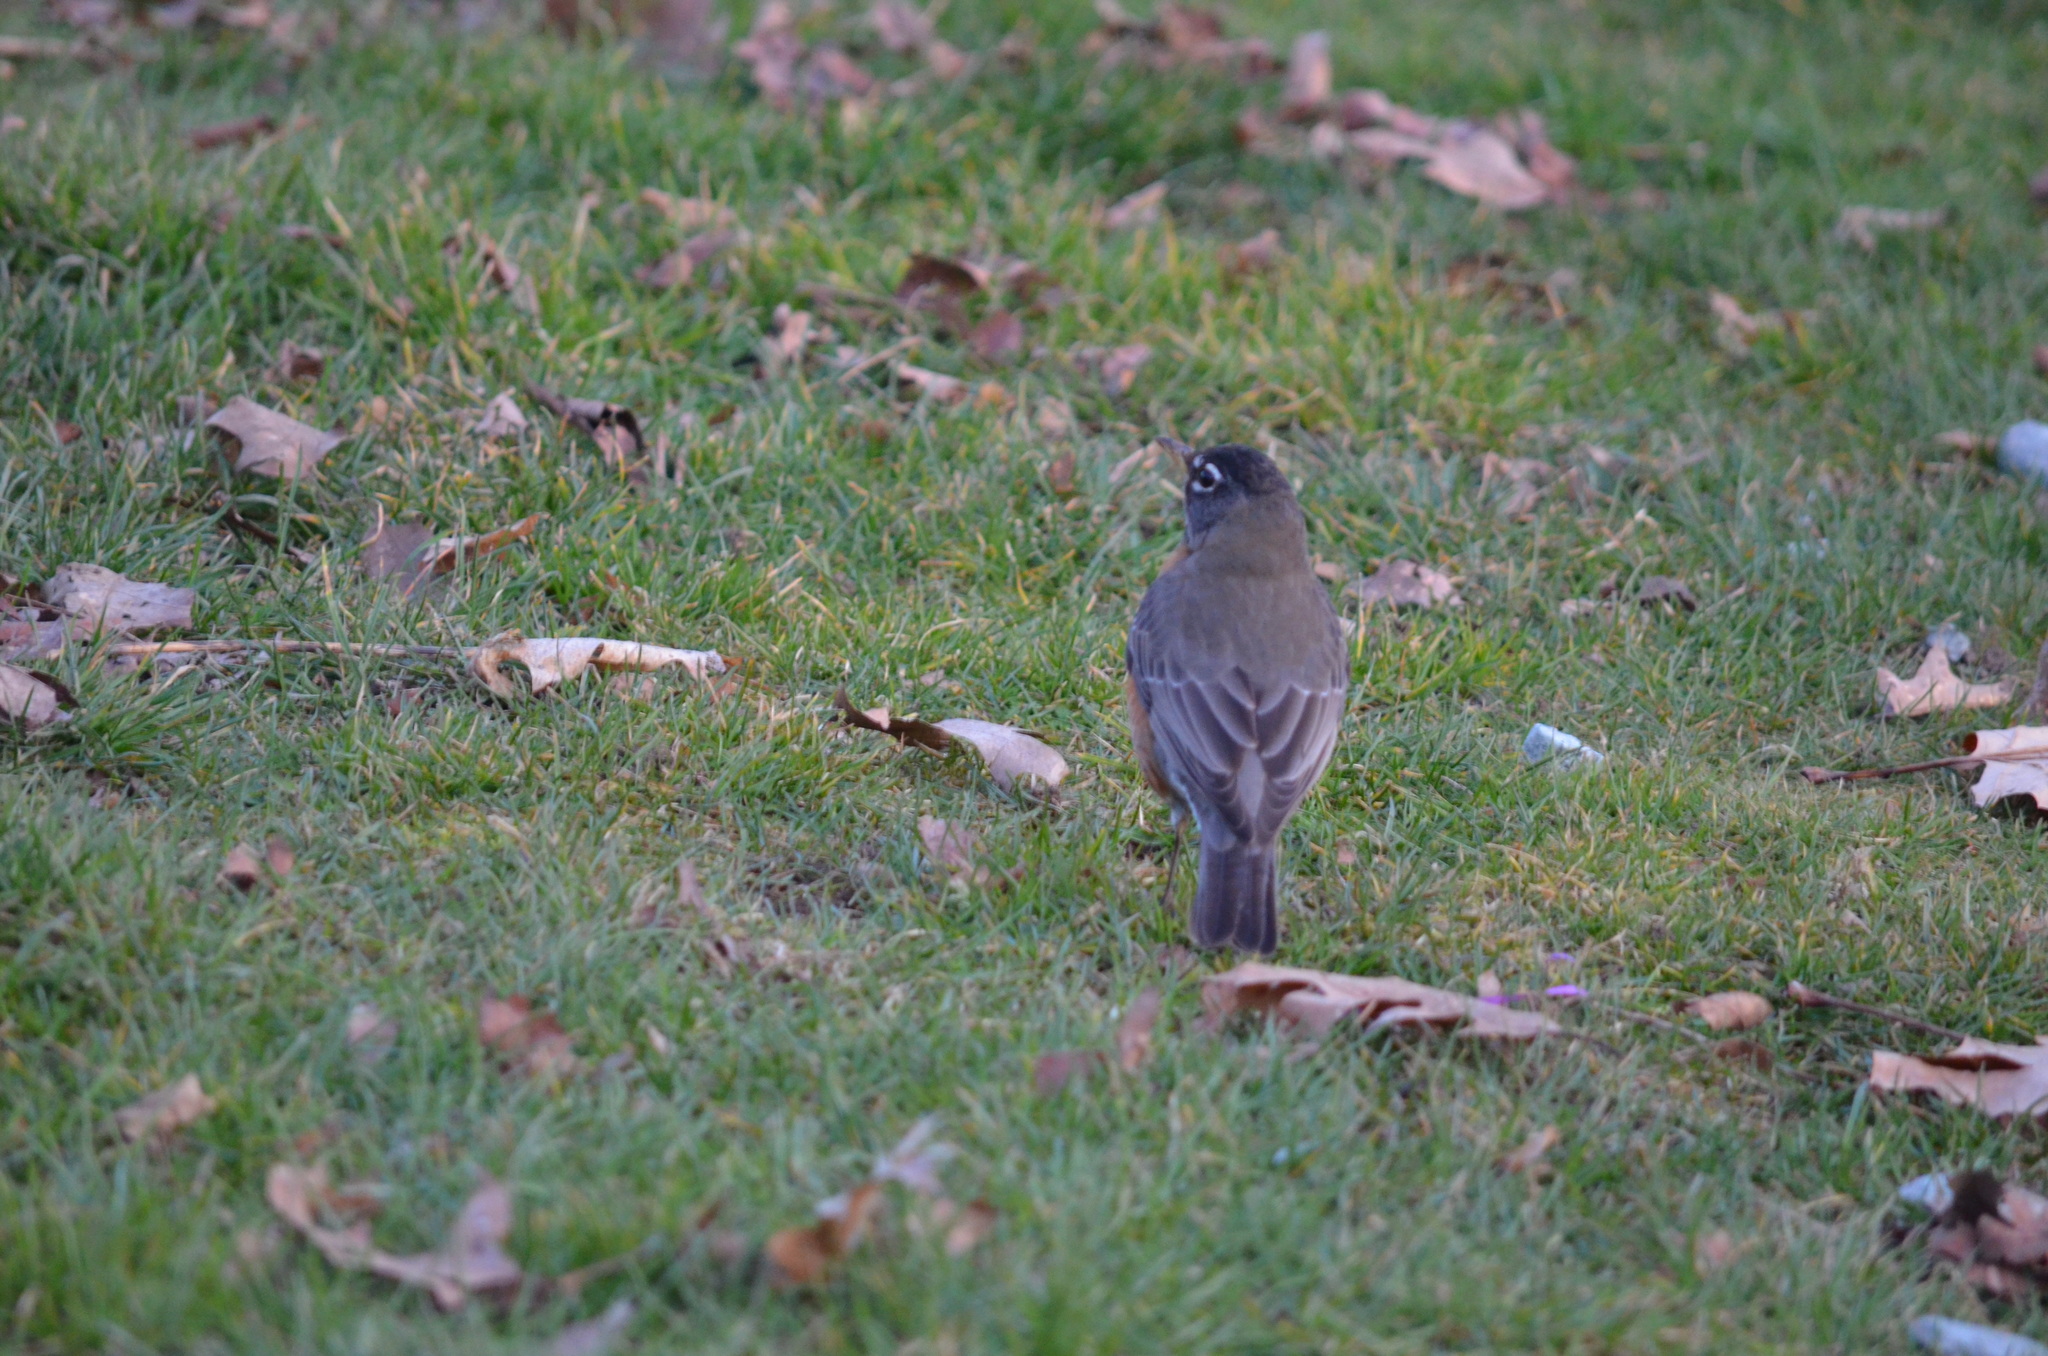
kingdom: Animalia
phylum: Chordata
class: Aves
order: Passeriformes
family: Turdidae
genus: Turdus
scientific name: Turdus migratorius
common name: American robin
